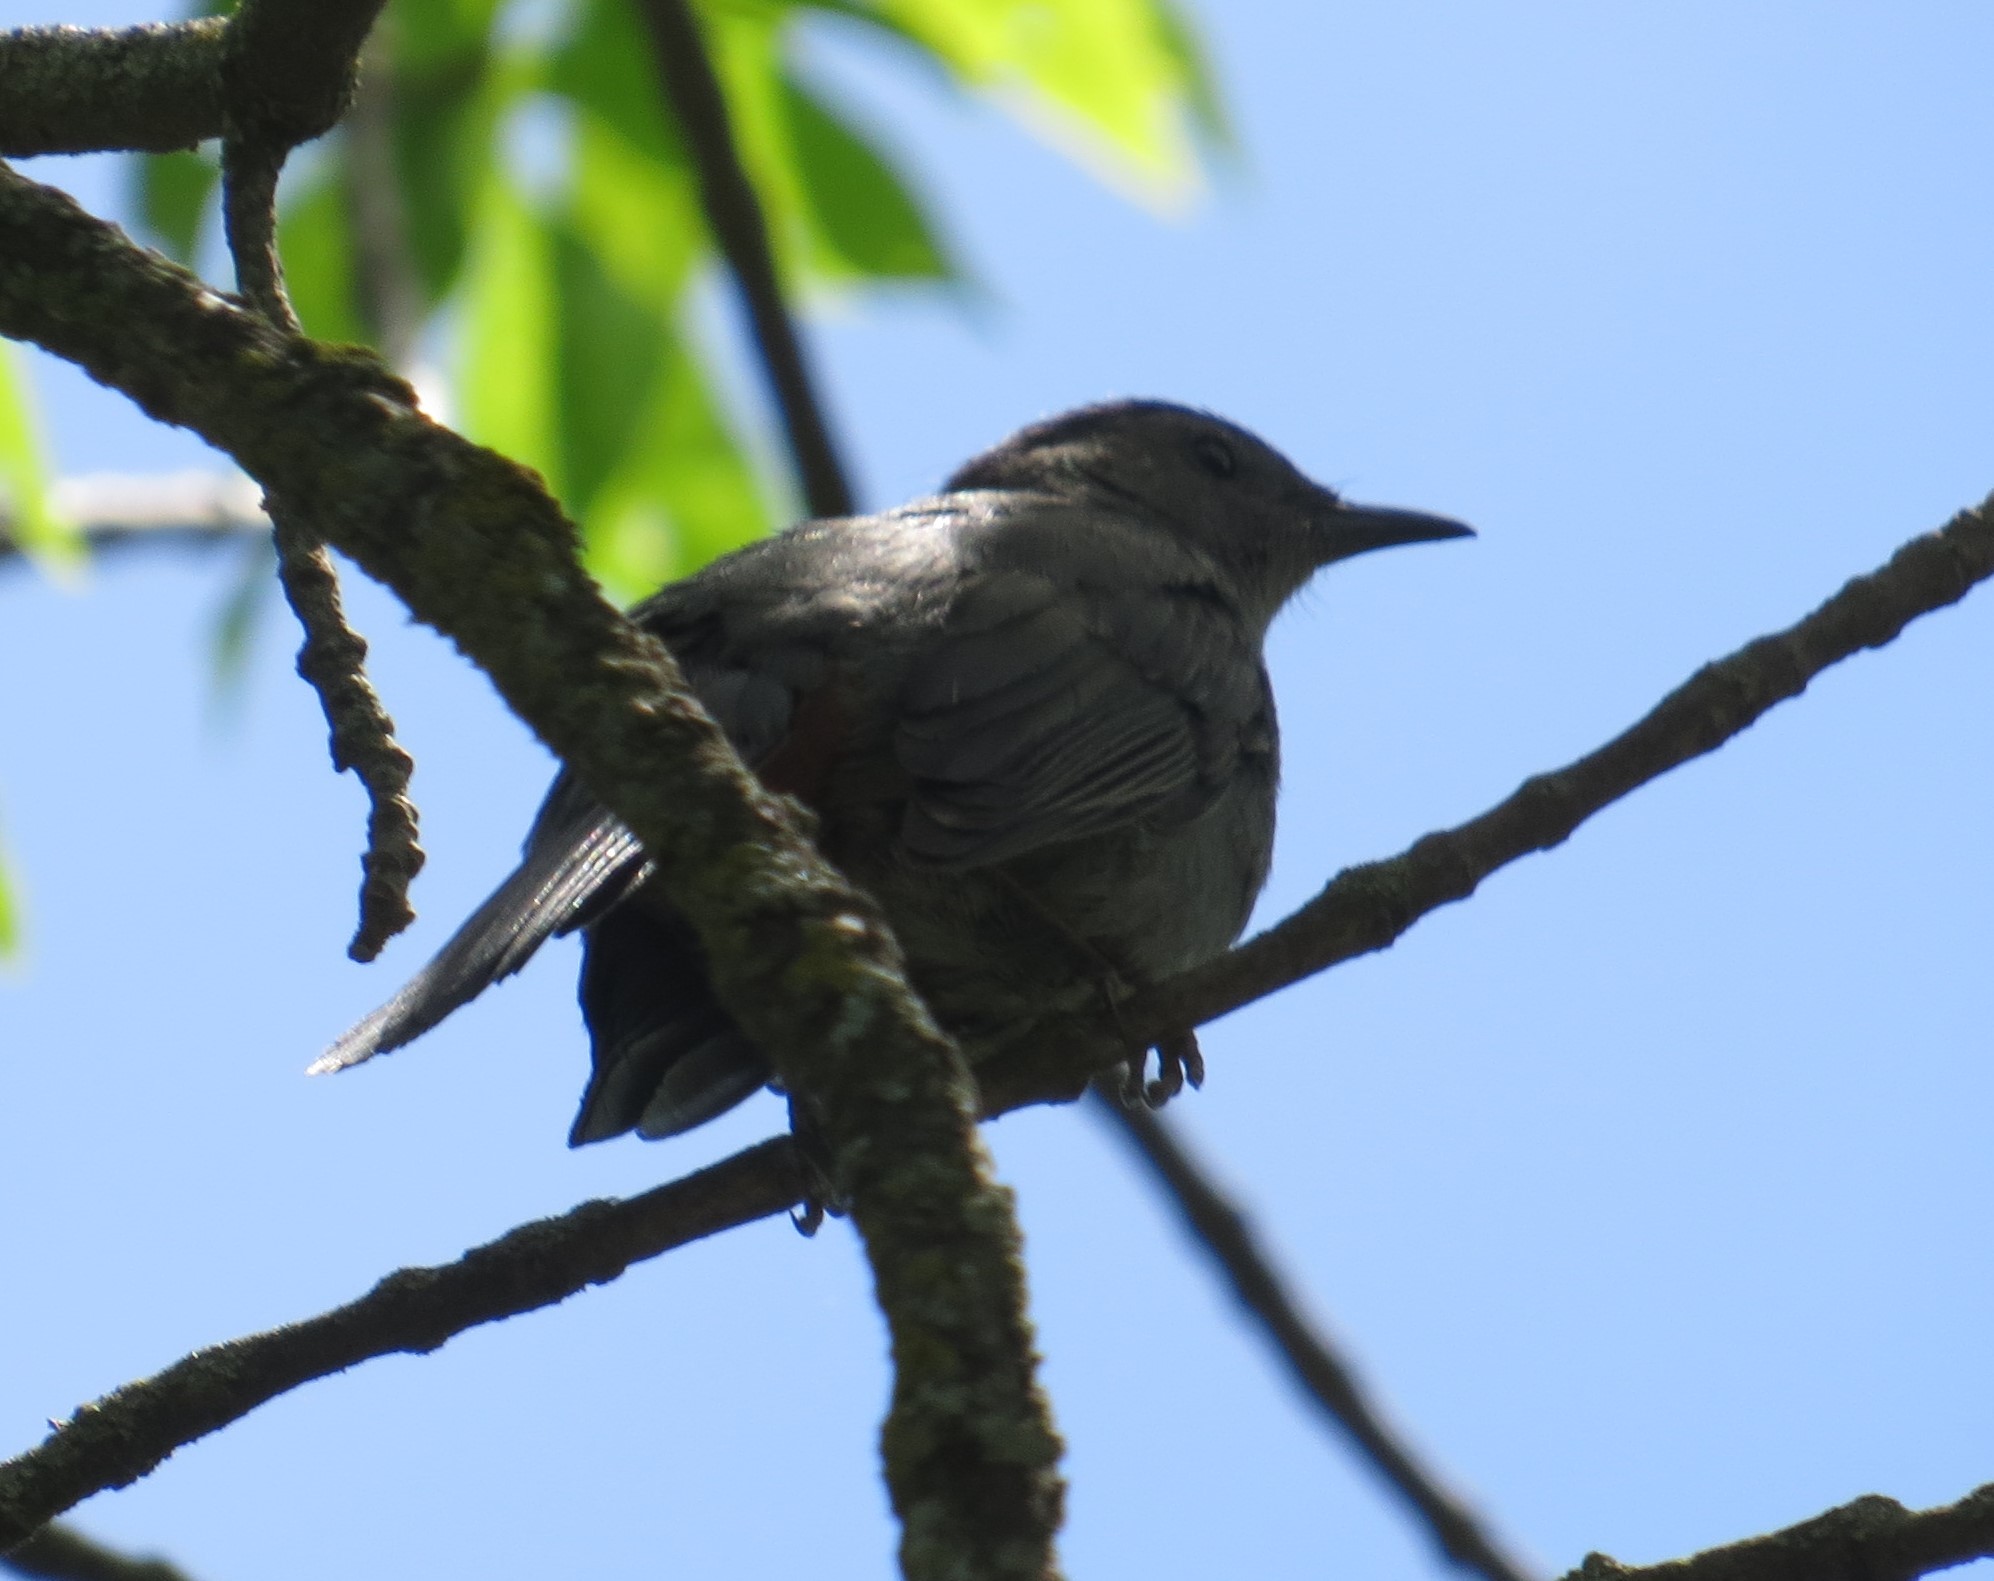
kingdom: Animalia
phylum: Chordata
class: Aves
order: Passeriformes
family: Mimidae
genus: Dumetella
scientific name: Dumetella carolinensis
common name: Gray catbird
